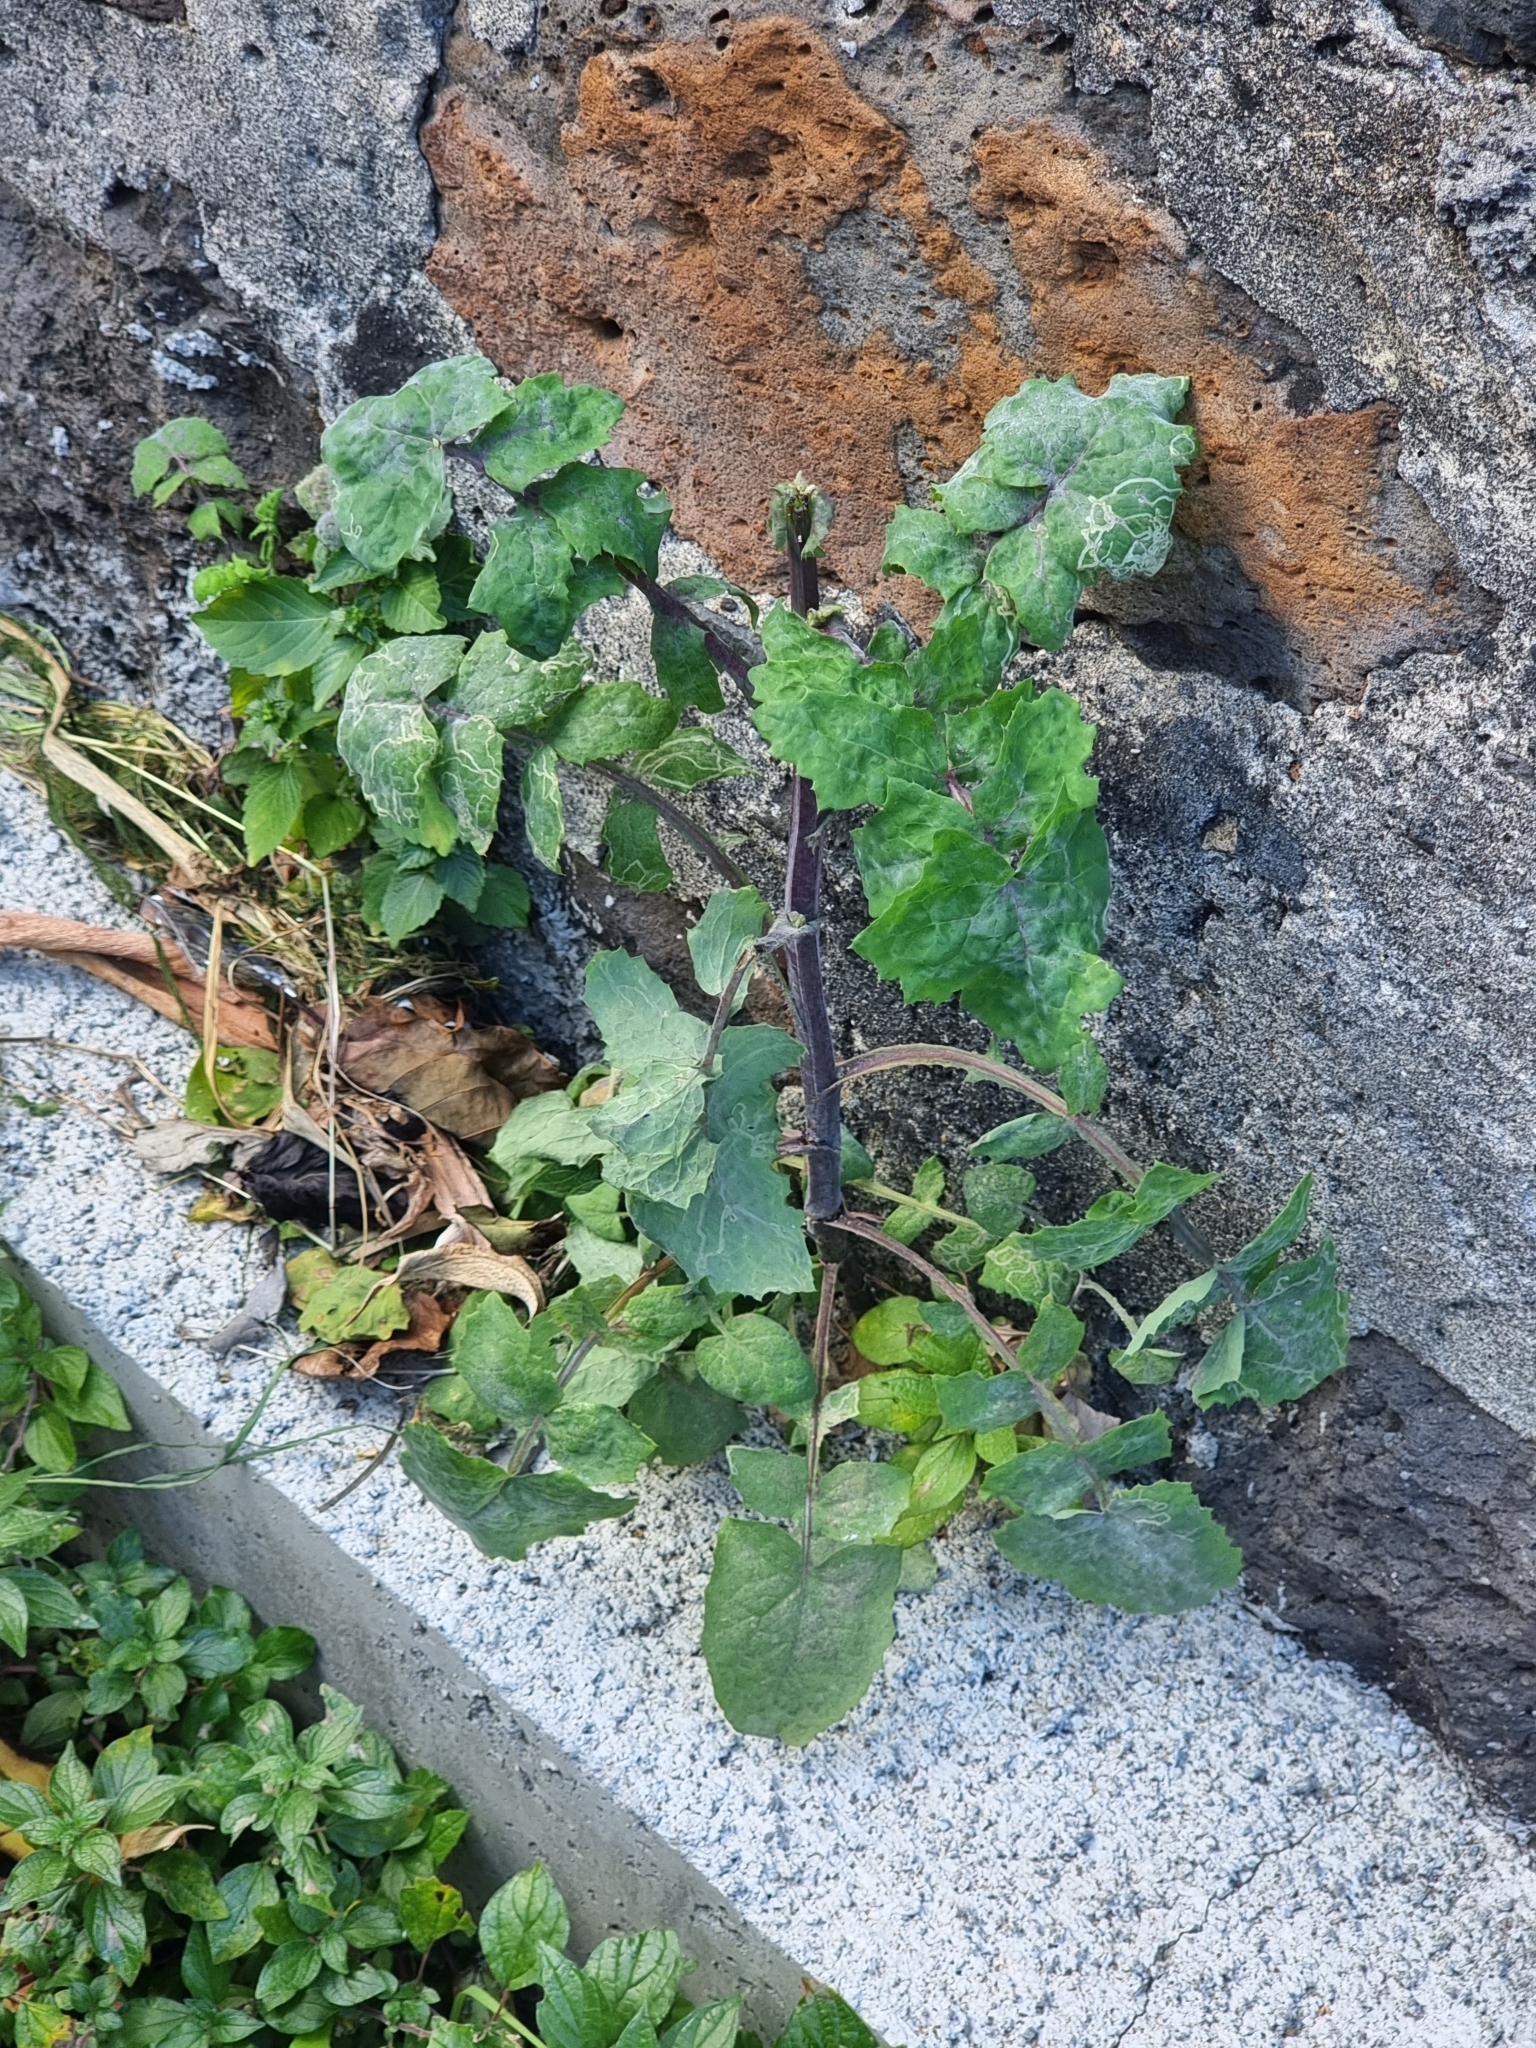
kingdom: Plantae
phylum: Tracheophyta
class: Magnoliopsida
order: Asterales
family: Asteraceae
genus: Sonchus
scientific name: Sonchus oleraceus
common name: Common sowthistle
